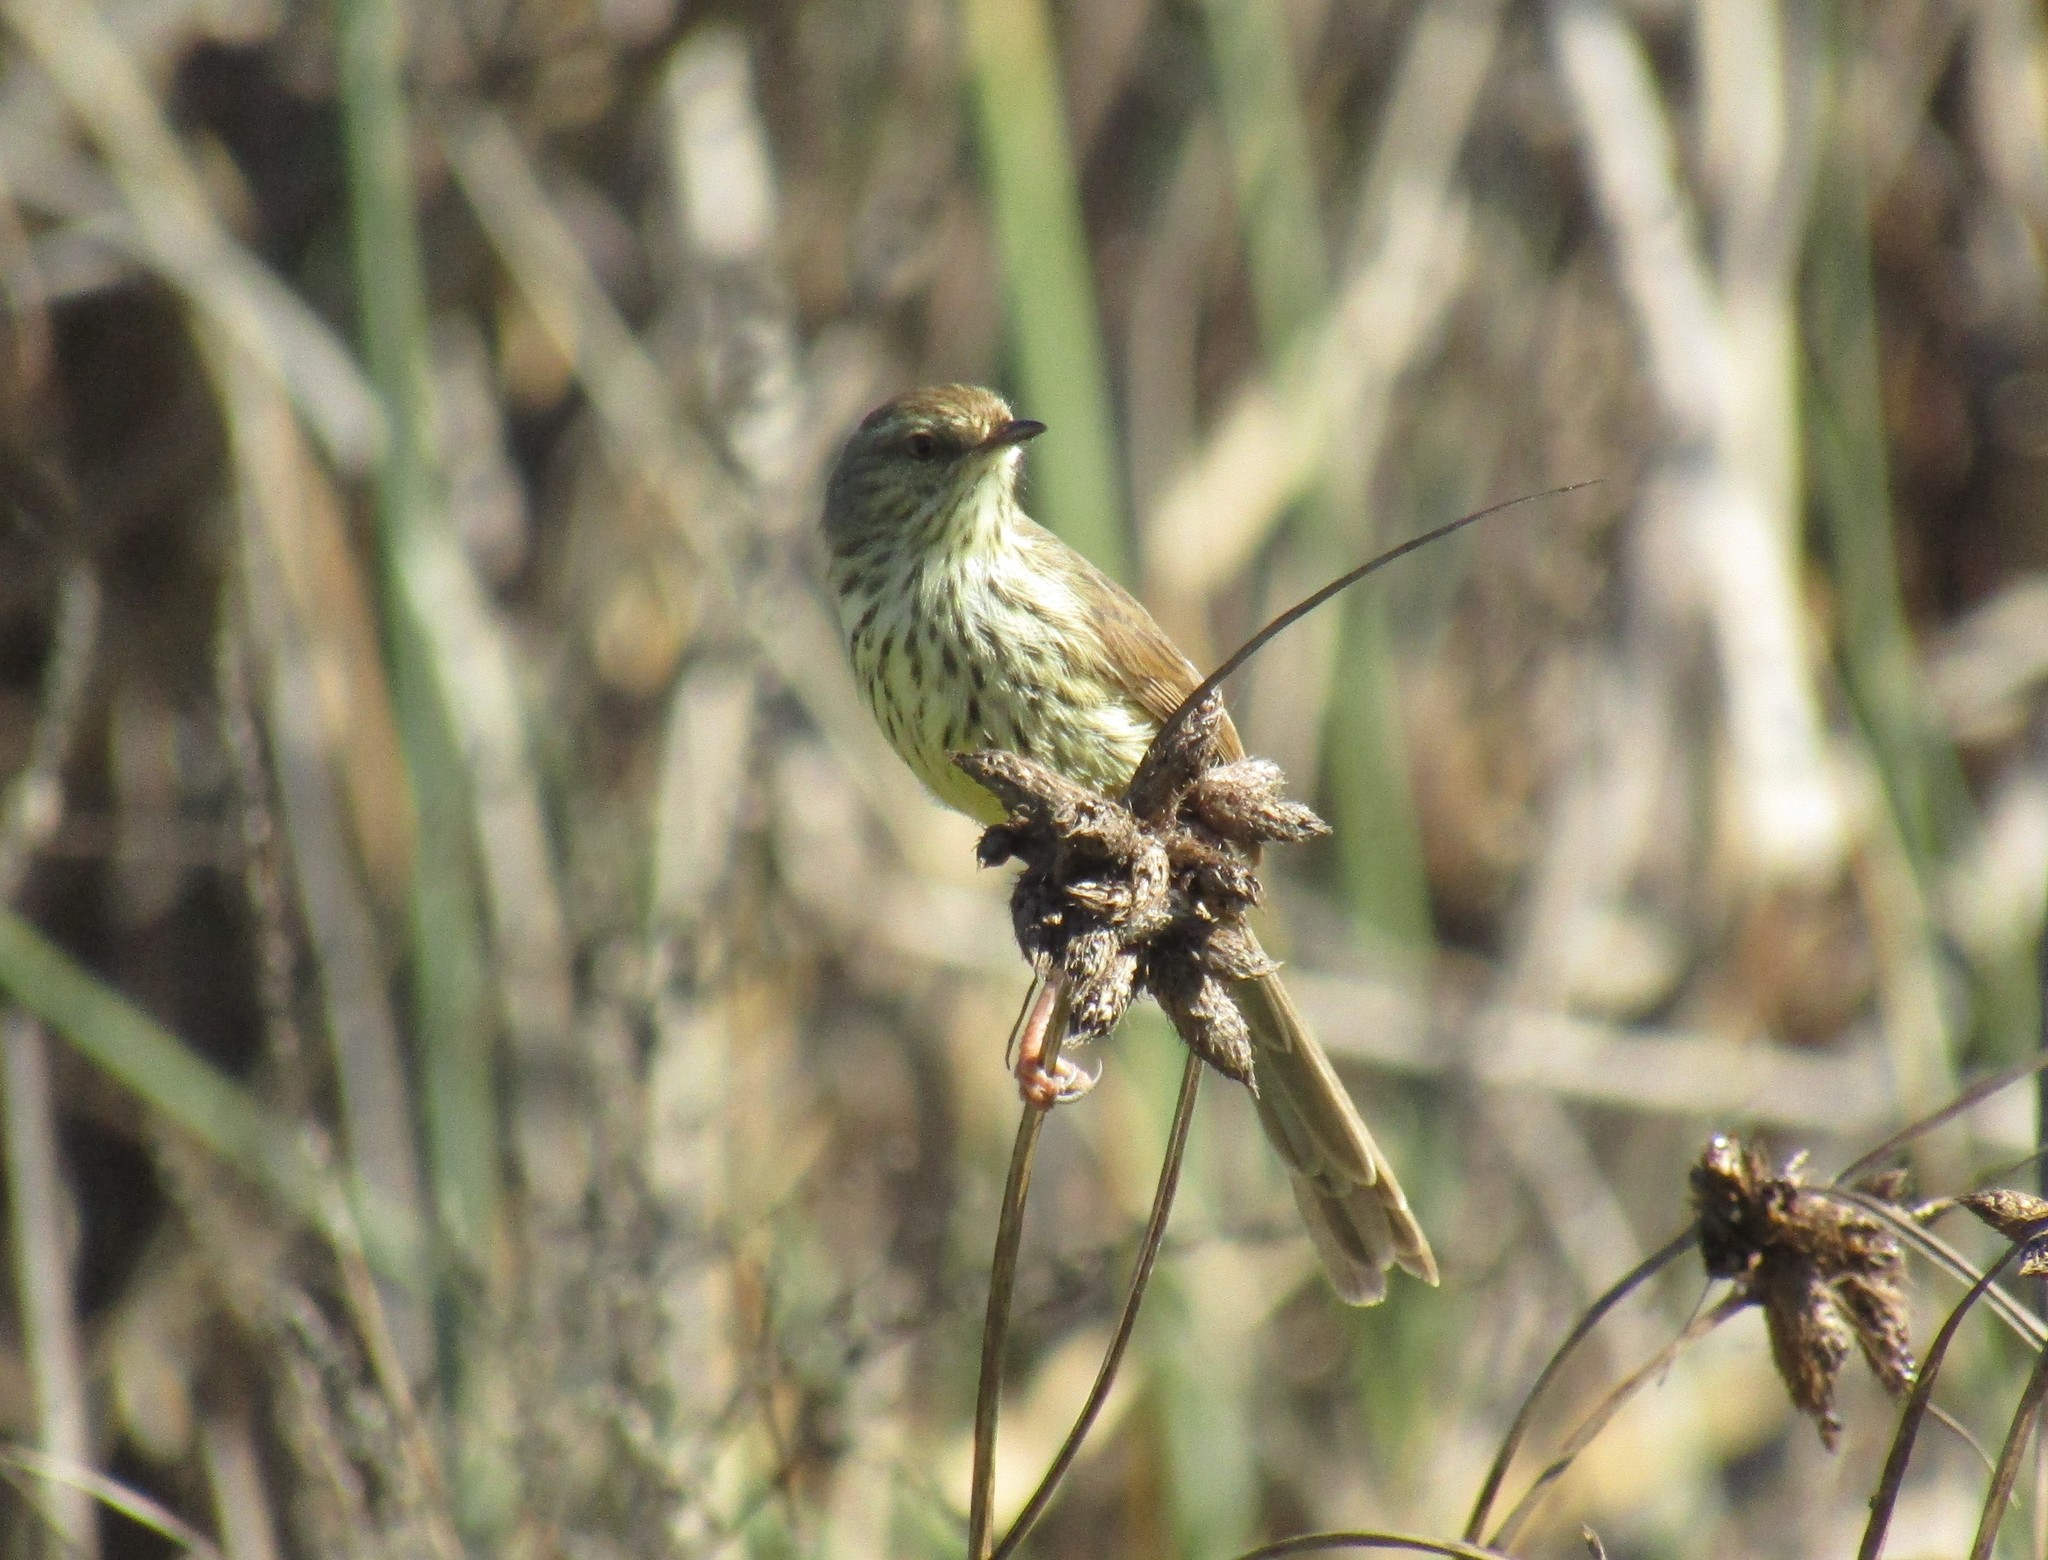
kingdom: Animalia
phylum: Chordata
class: Aves
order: Passeriformes
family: Cisticolidae
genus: Prinia
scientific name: Prinia maculosa
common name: Karoo prinia
